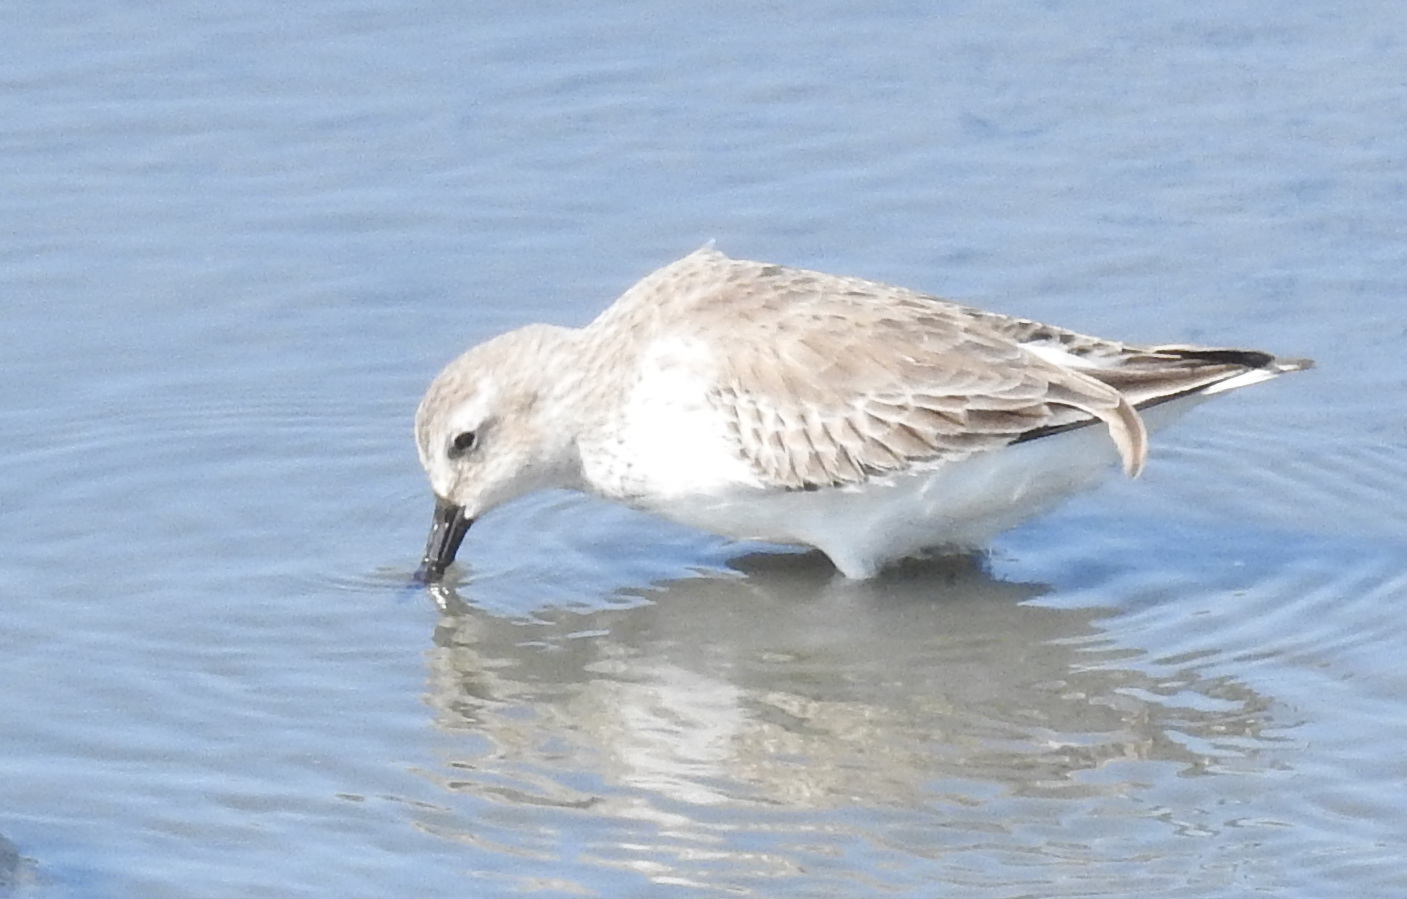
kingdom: Animalia
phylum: Chordata
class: Aves
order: Charadriiformes
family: Scolopacidae
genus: Calidris
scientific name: Calidris alpina
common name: Dunlin
